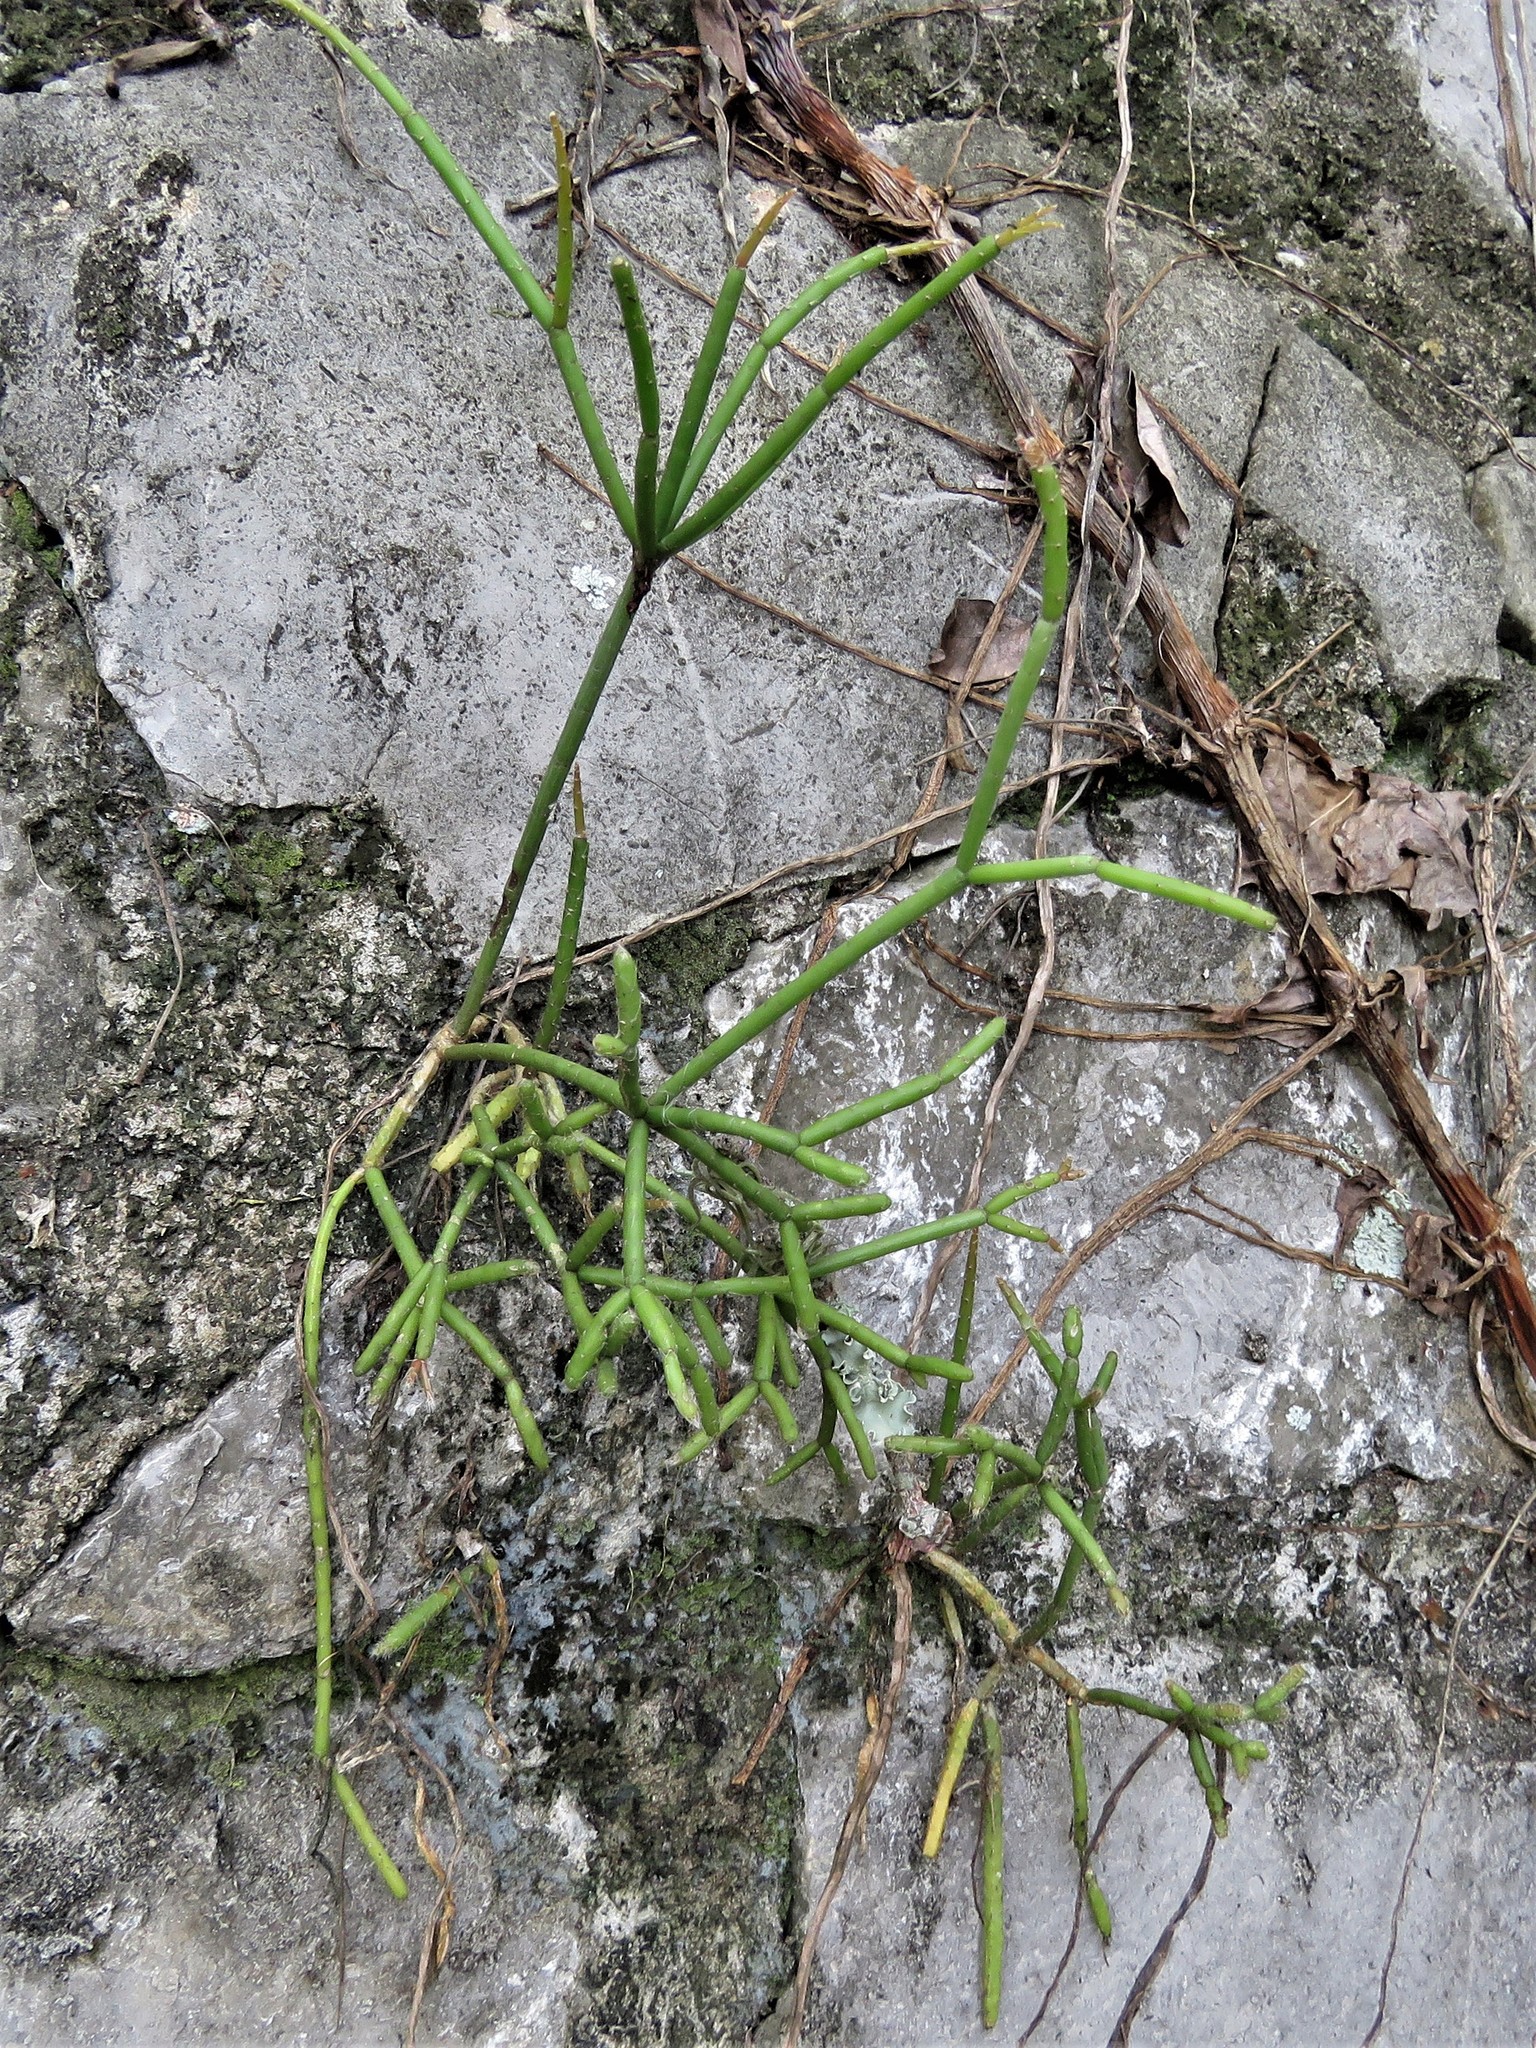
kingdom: Plantae
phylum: Tracheophyta
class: Magnoliopsida
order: Caryophyllales
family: Cactaceae
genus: Rhipsalis
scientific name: Rhipsalis baccifera
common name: Mistletoe cactus
